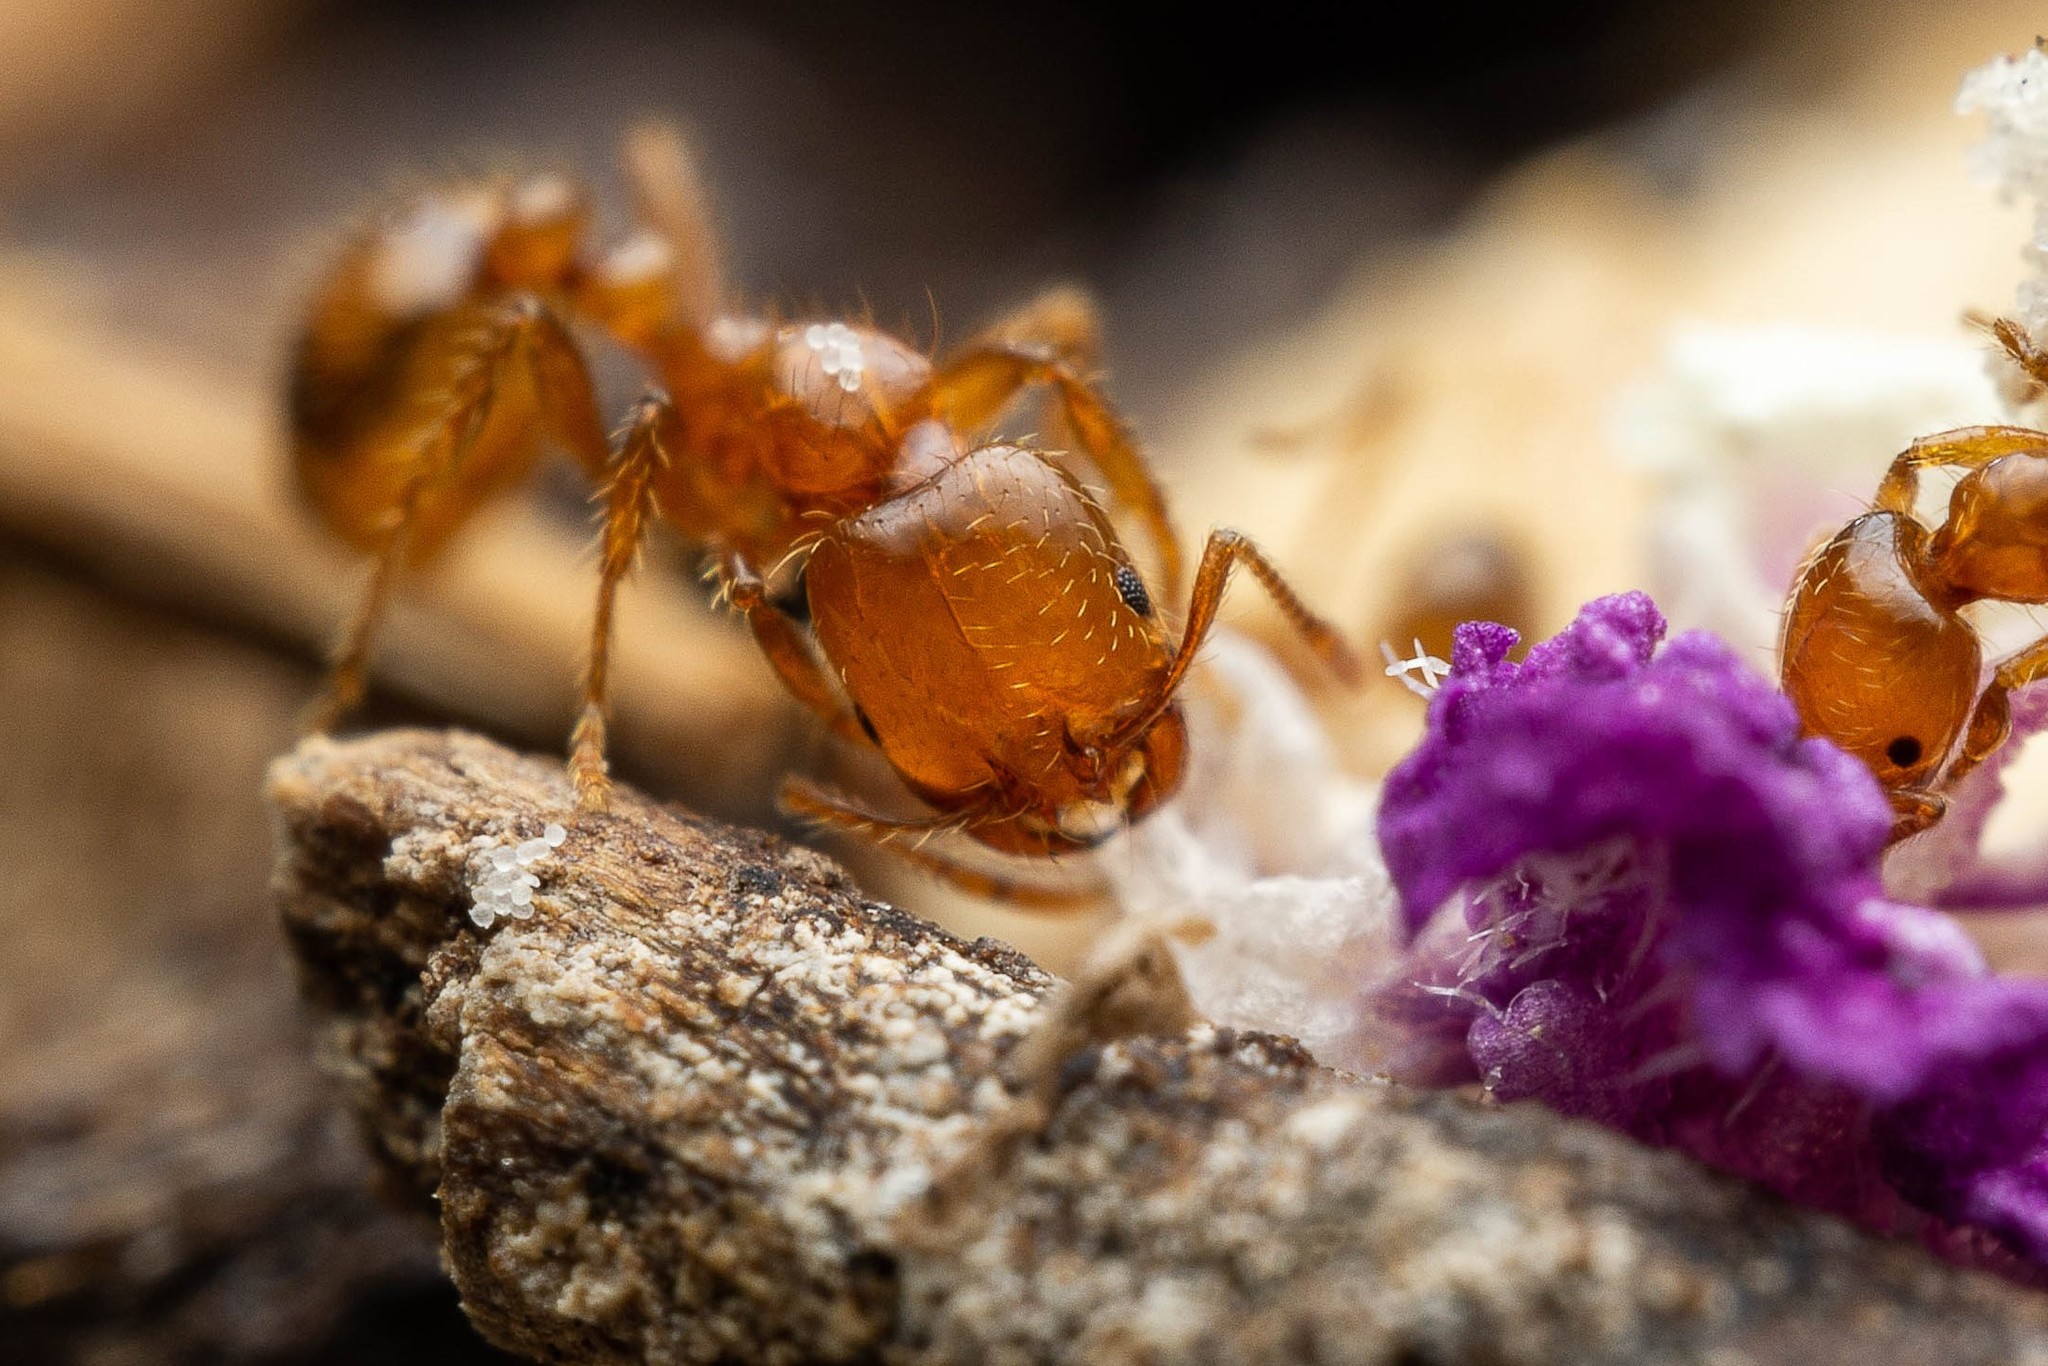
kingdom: Animalia
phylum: Arthropoda
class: Insecta
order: Hymenoptera
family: Formicidae
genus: Solenopsis
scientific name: Solenopsis xyloni
